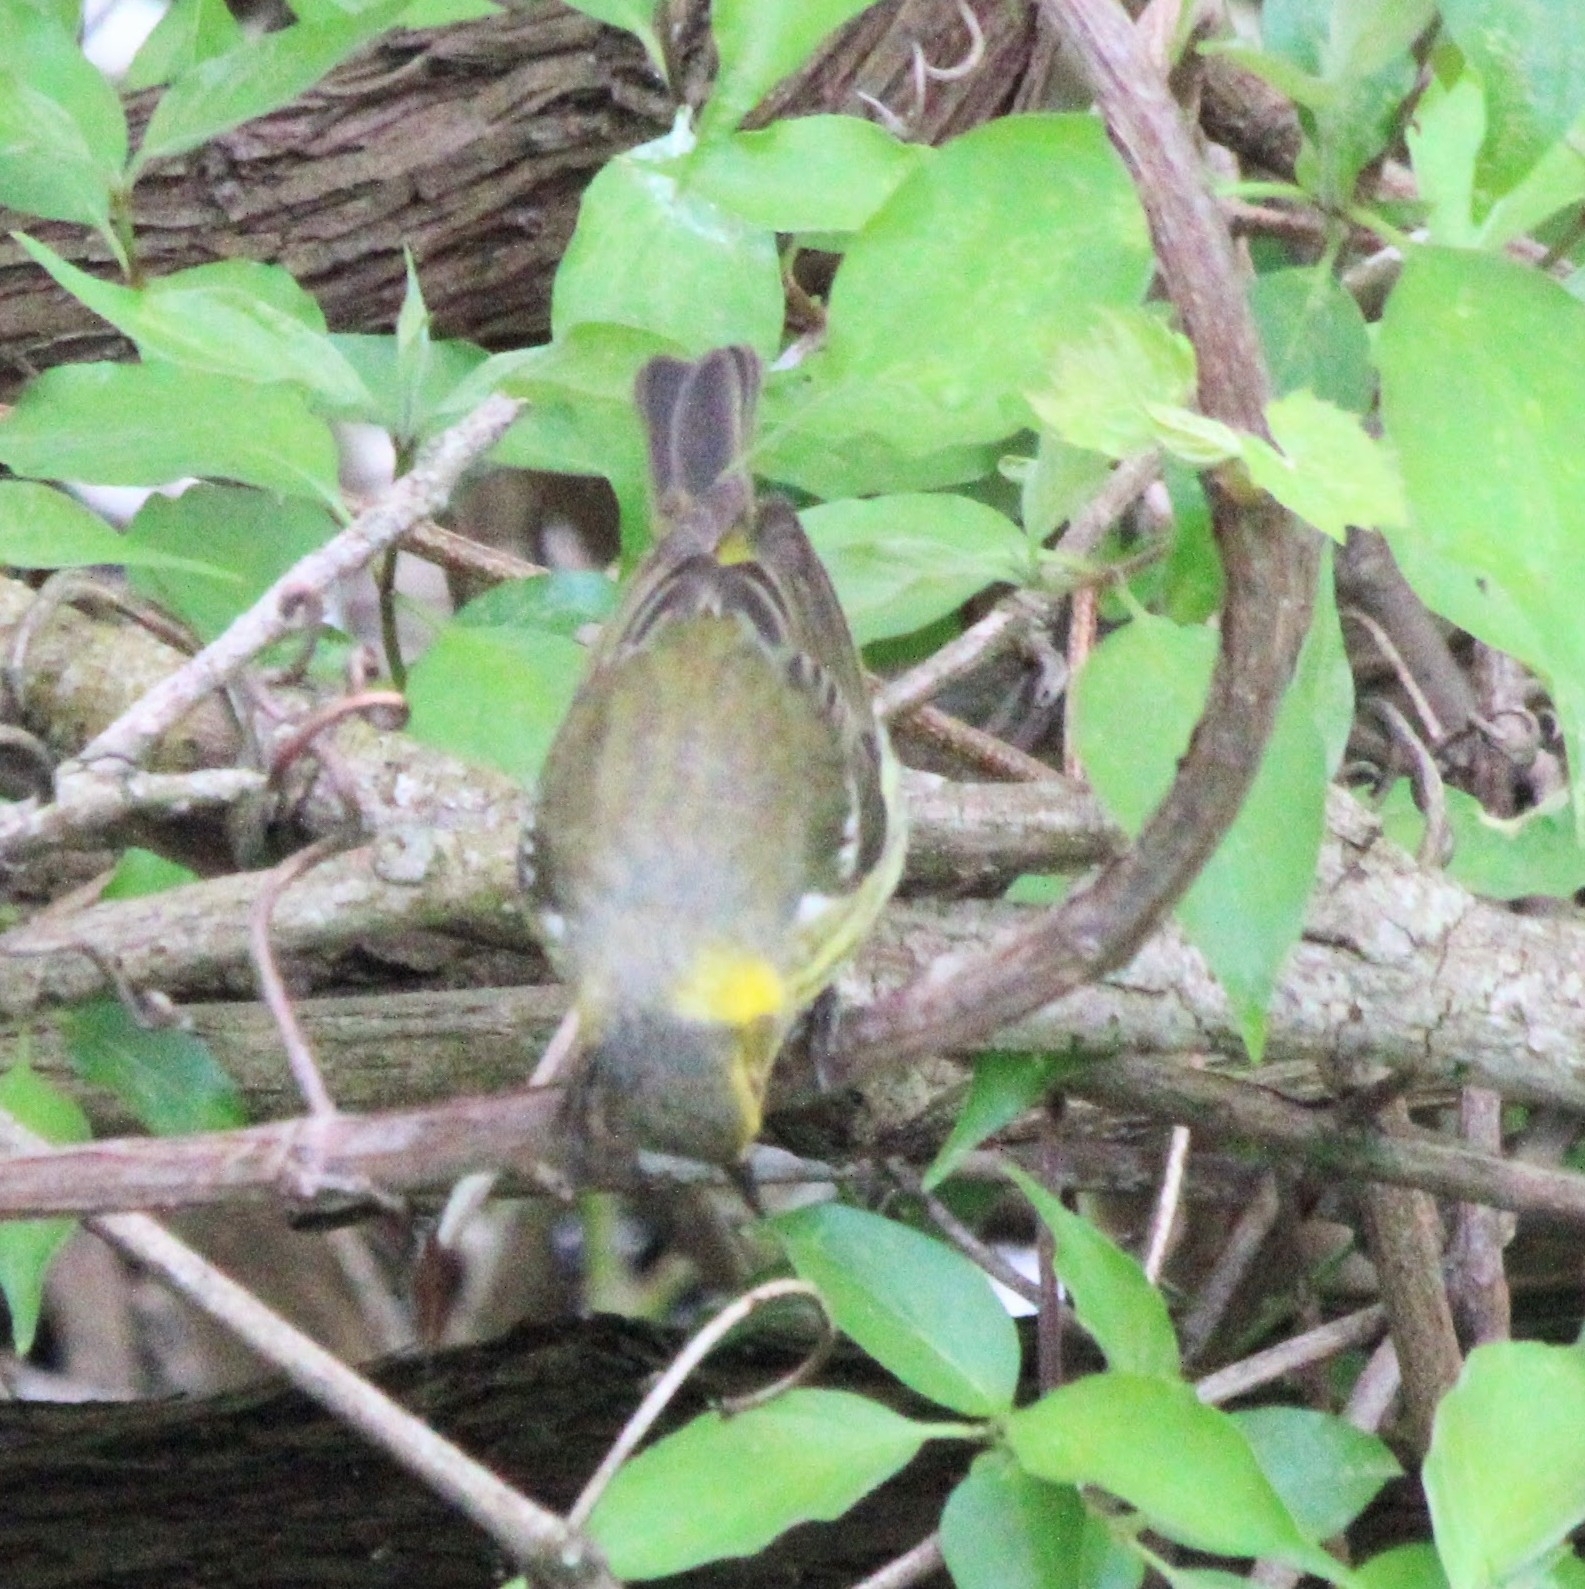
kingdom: Animalia
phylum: Chordata
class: Aves
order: Passeriformes
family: Parulidae
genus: Setophaga
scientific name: Setophaga tigrina
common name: Cape may warbler
